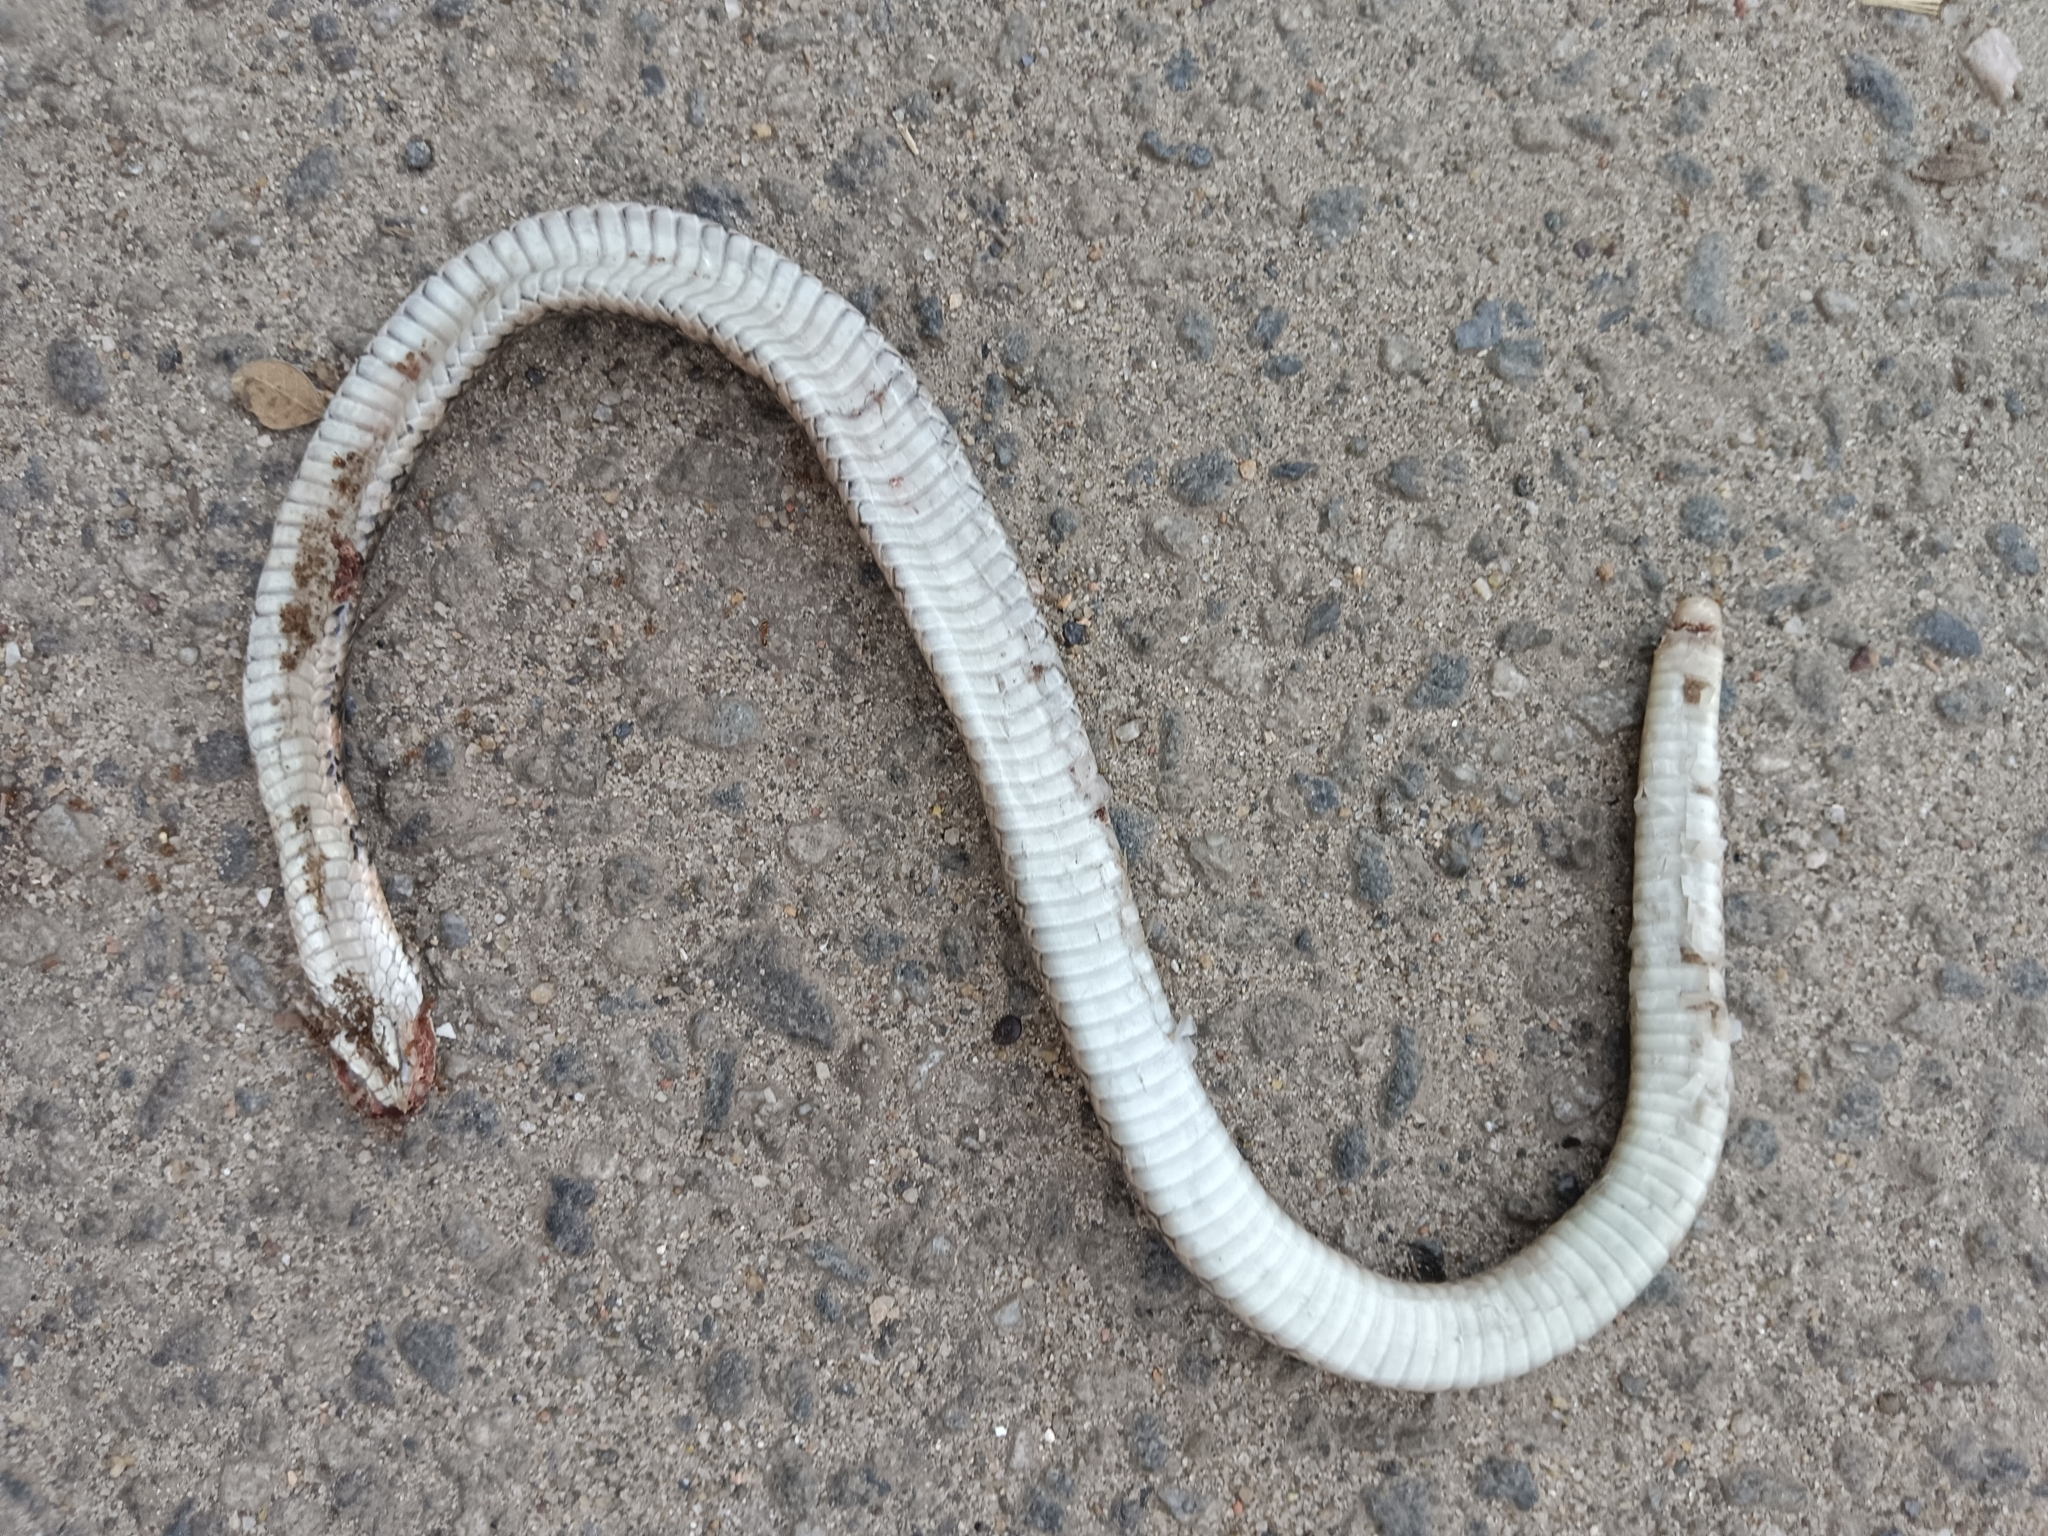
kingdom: Animalia
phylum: Chordata
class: Squamata
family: Colubridae
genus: Fowlea
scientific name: Fowlea piscator
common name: Asiatic water snake
